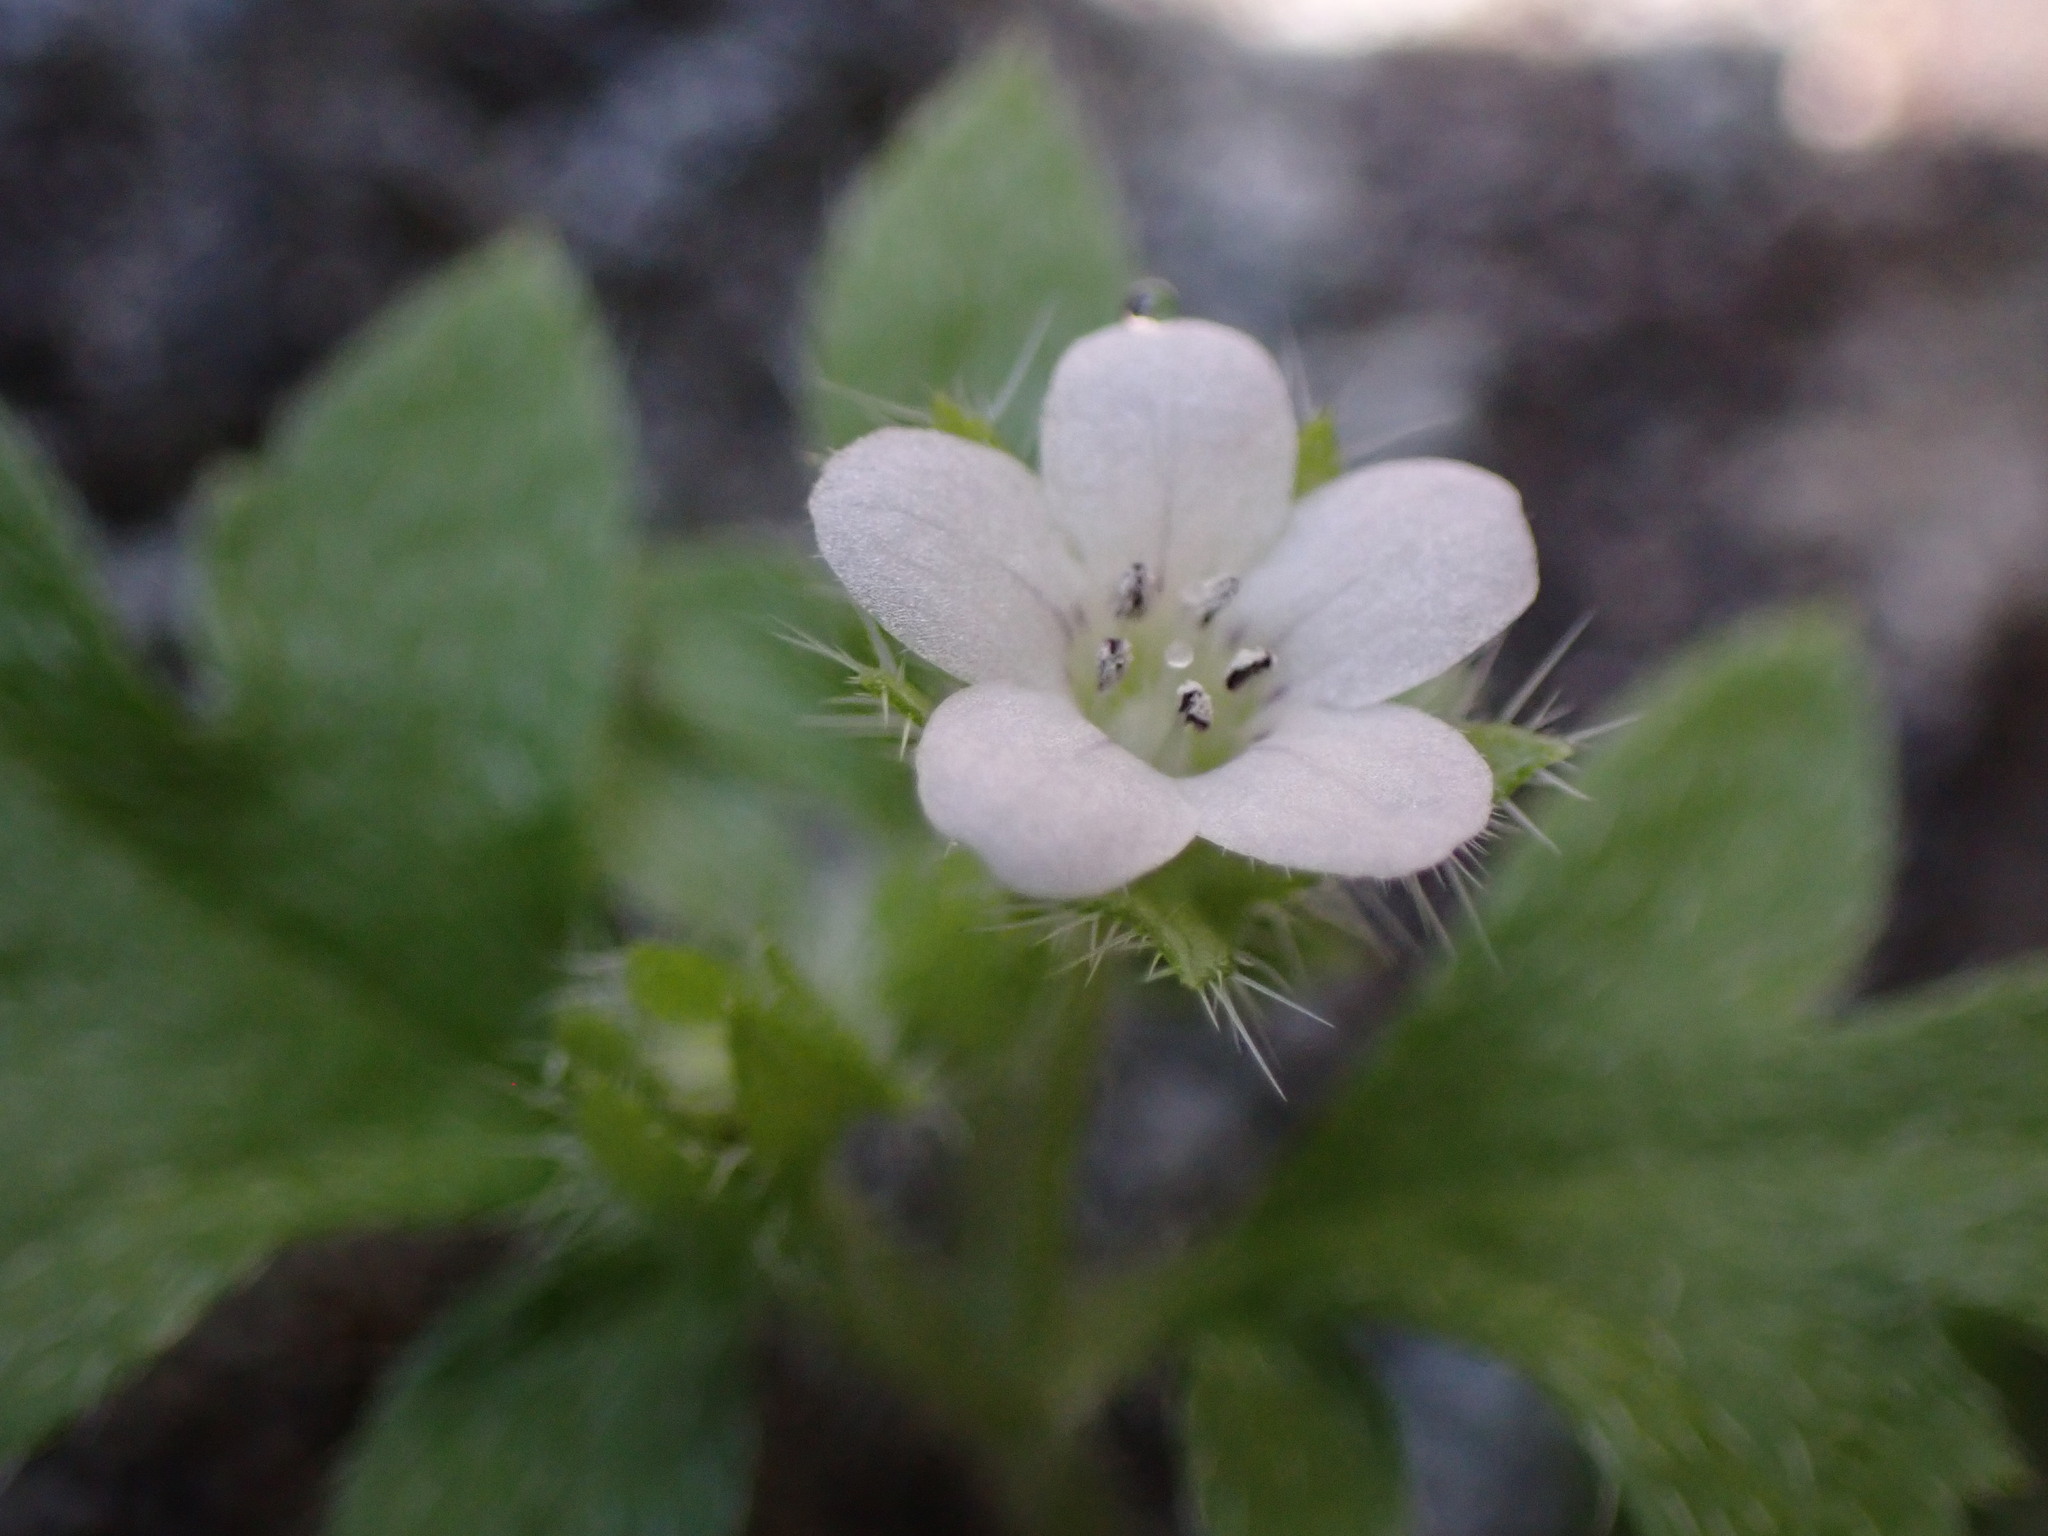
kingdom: Plantae
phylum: Tracheophyta
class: Magnoliopsida
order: Boraginales
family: Hydrophyllaceae
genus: Nemophila
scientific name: Nemophila parviflora
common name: Small-flowered baby-blue-eyes
